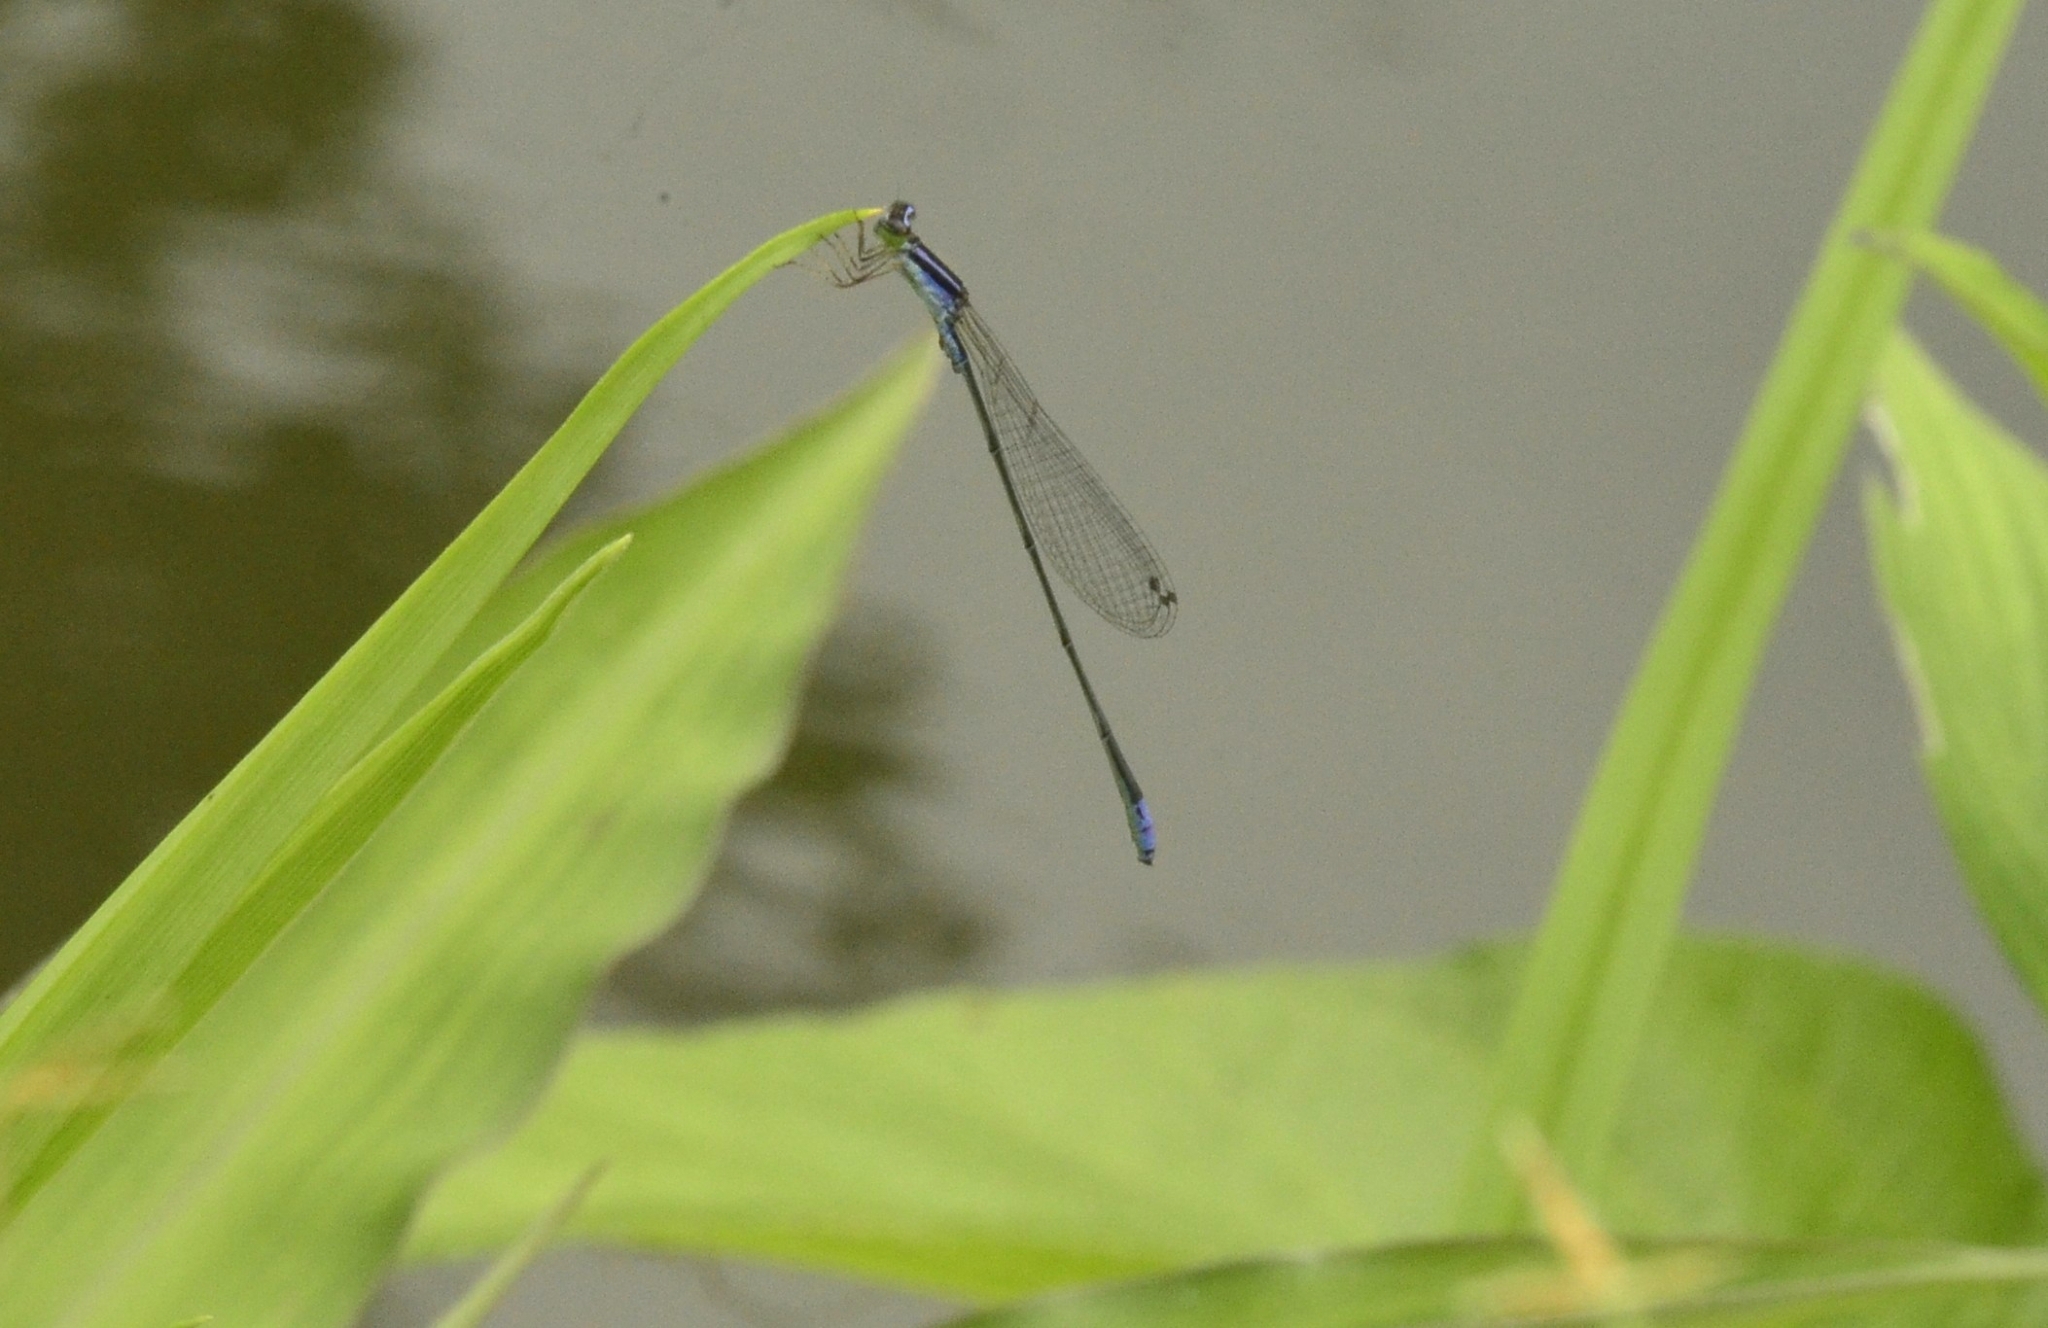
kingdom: Animalia
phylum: Arthropoda
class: Insecta
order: Odonata
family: Coenagrionidae
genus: Aciagrion
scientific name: Aciagrion approximans
